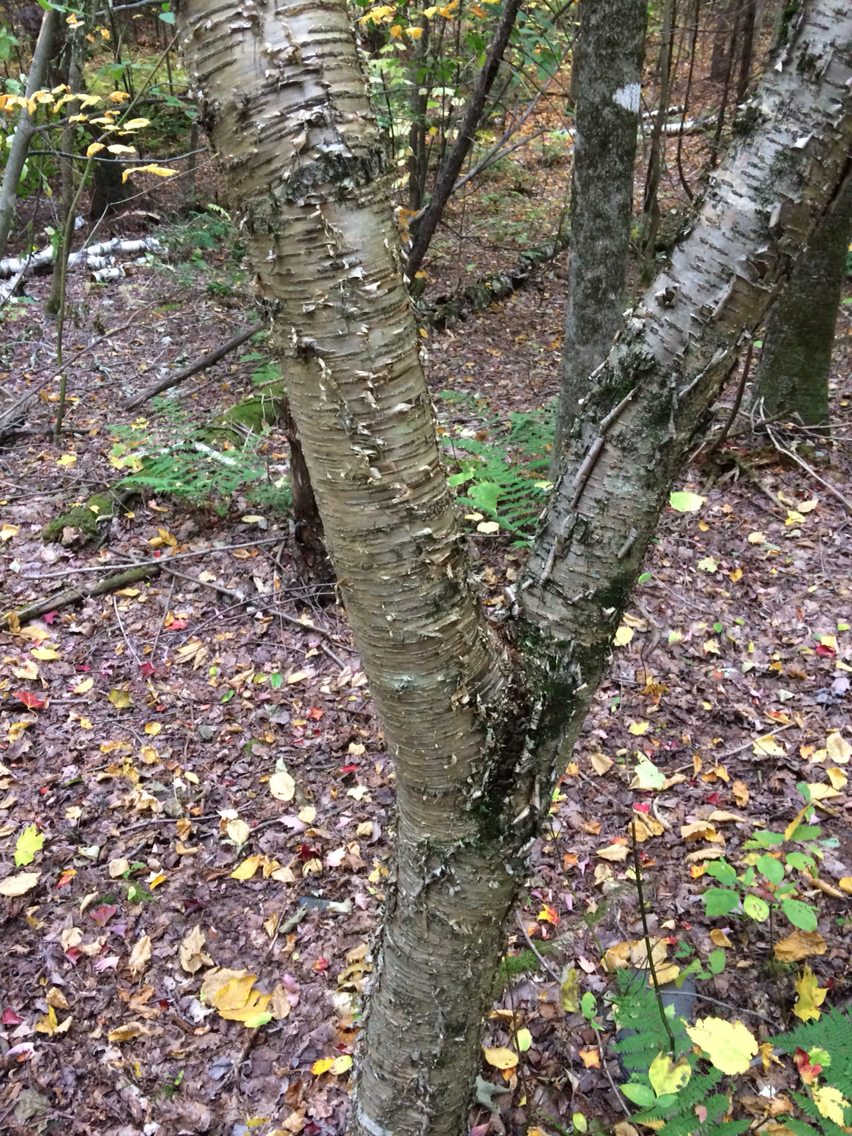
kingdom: Plantae
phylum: Tracheophyta
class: Magnoliopsida
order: Fagales
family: Betulaceae
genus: Betula
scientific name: Betula alleghaniensis
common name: Yellow birch
